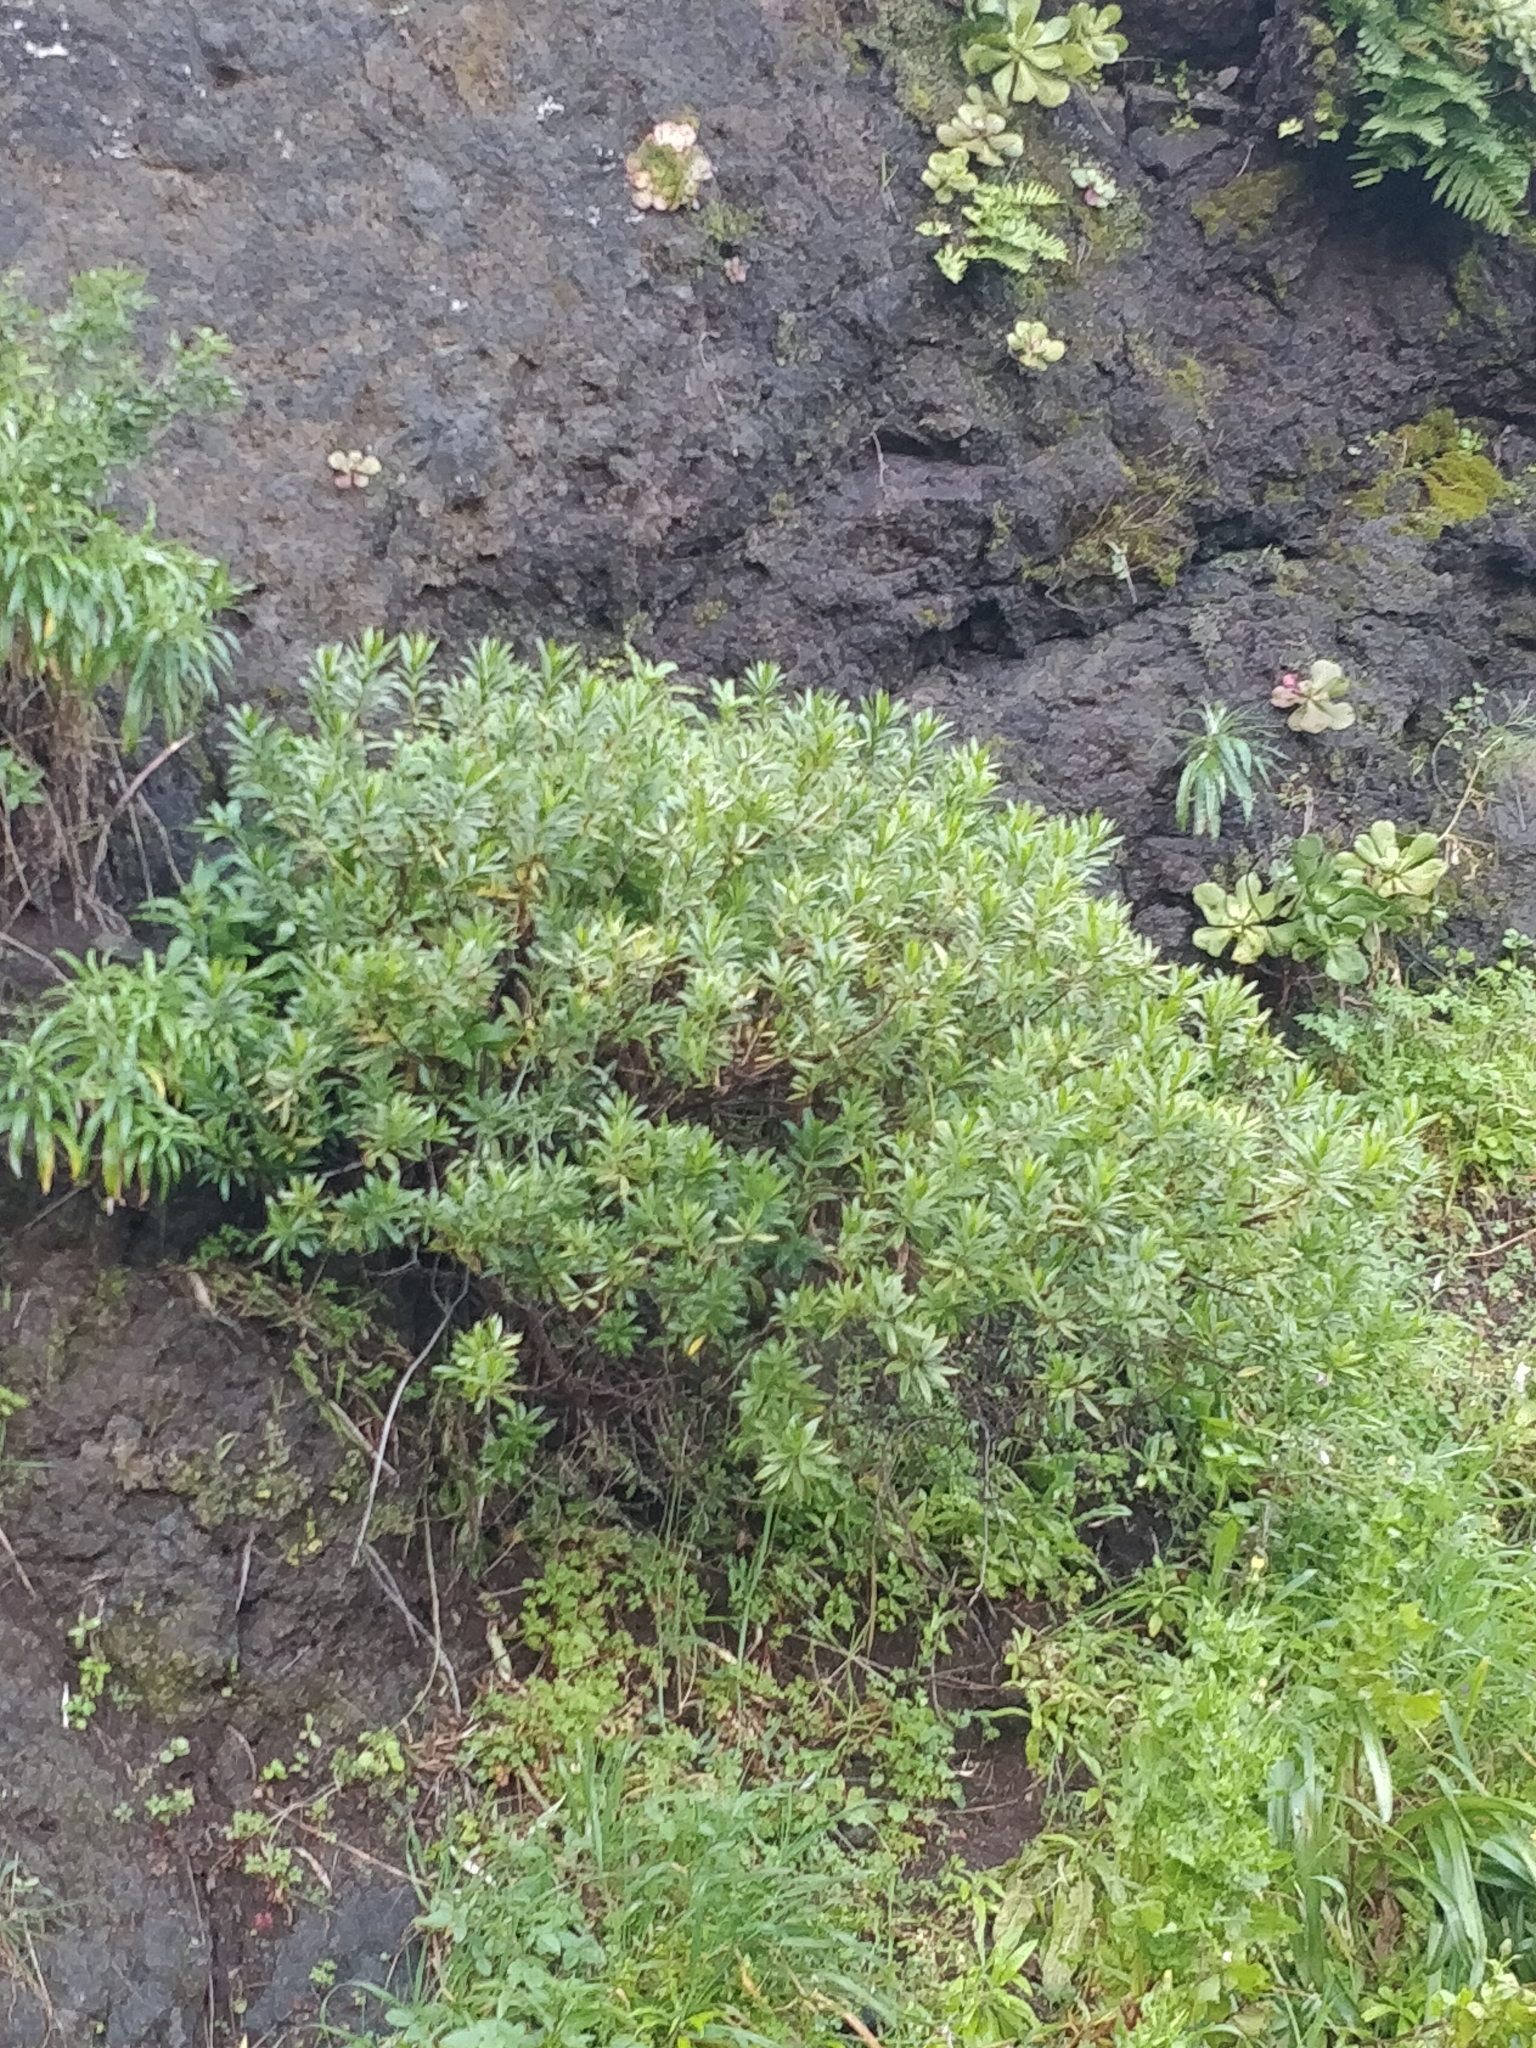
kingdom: Plantae
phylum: Tracheophyta
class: Magnoliopsida
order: Lamiales
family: Plantaginaceae
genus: Globularia
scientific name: Globularia salicina
